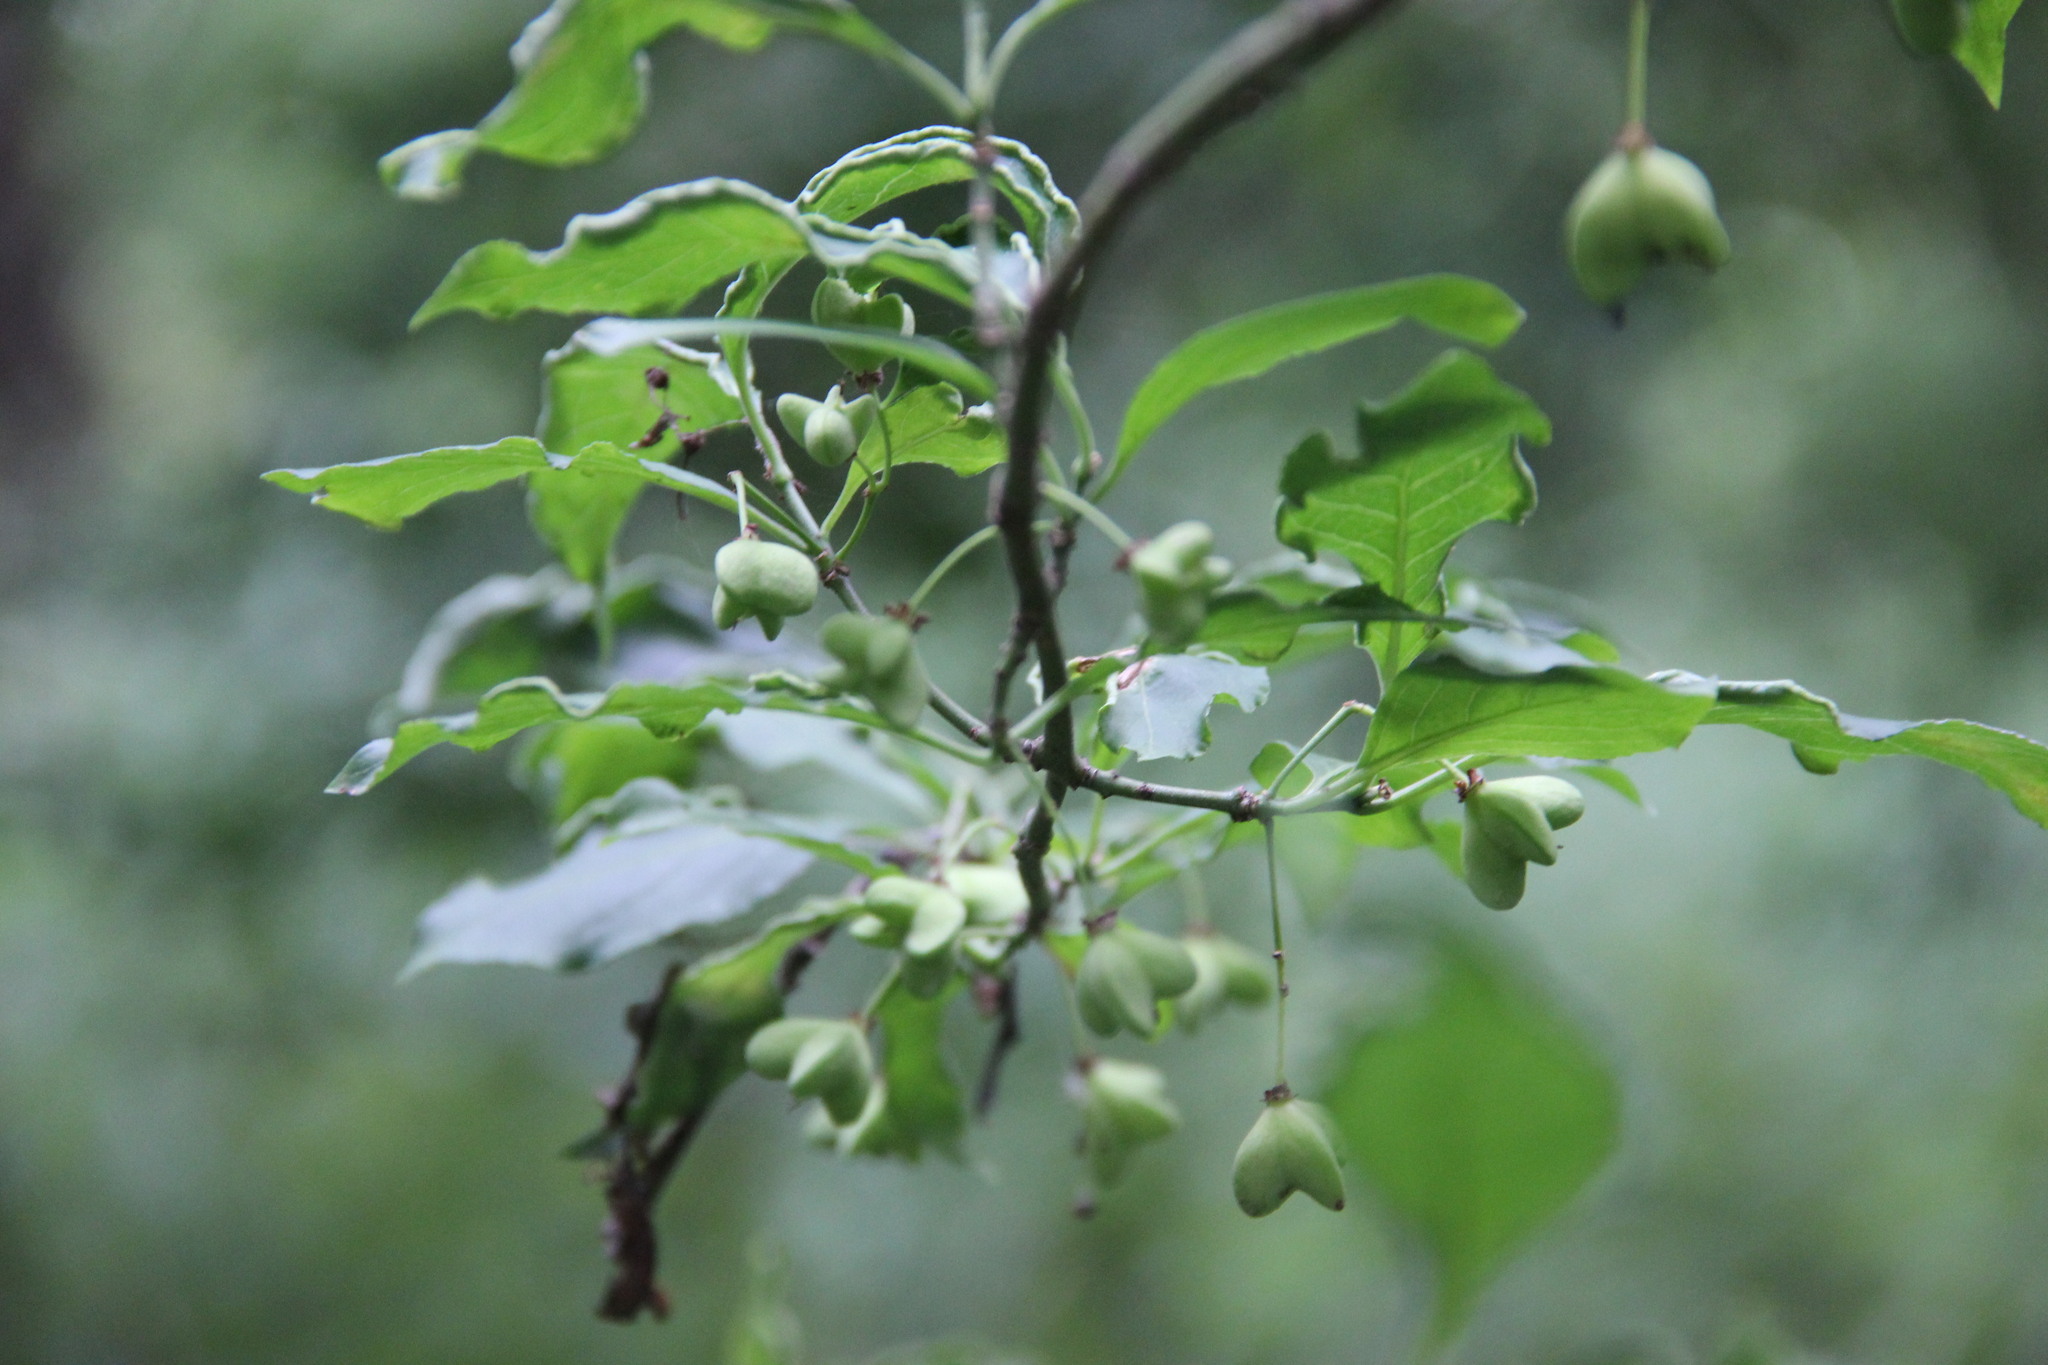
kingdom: Plantae
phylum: Tracheophyta
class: Magnoliopsida
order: Celastrales
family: Celastraceae
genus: Euonymus
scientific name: Euonymus europaeus
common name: Spindle
